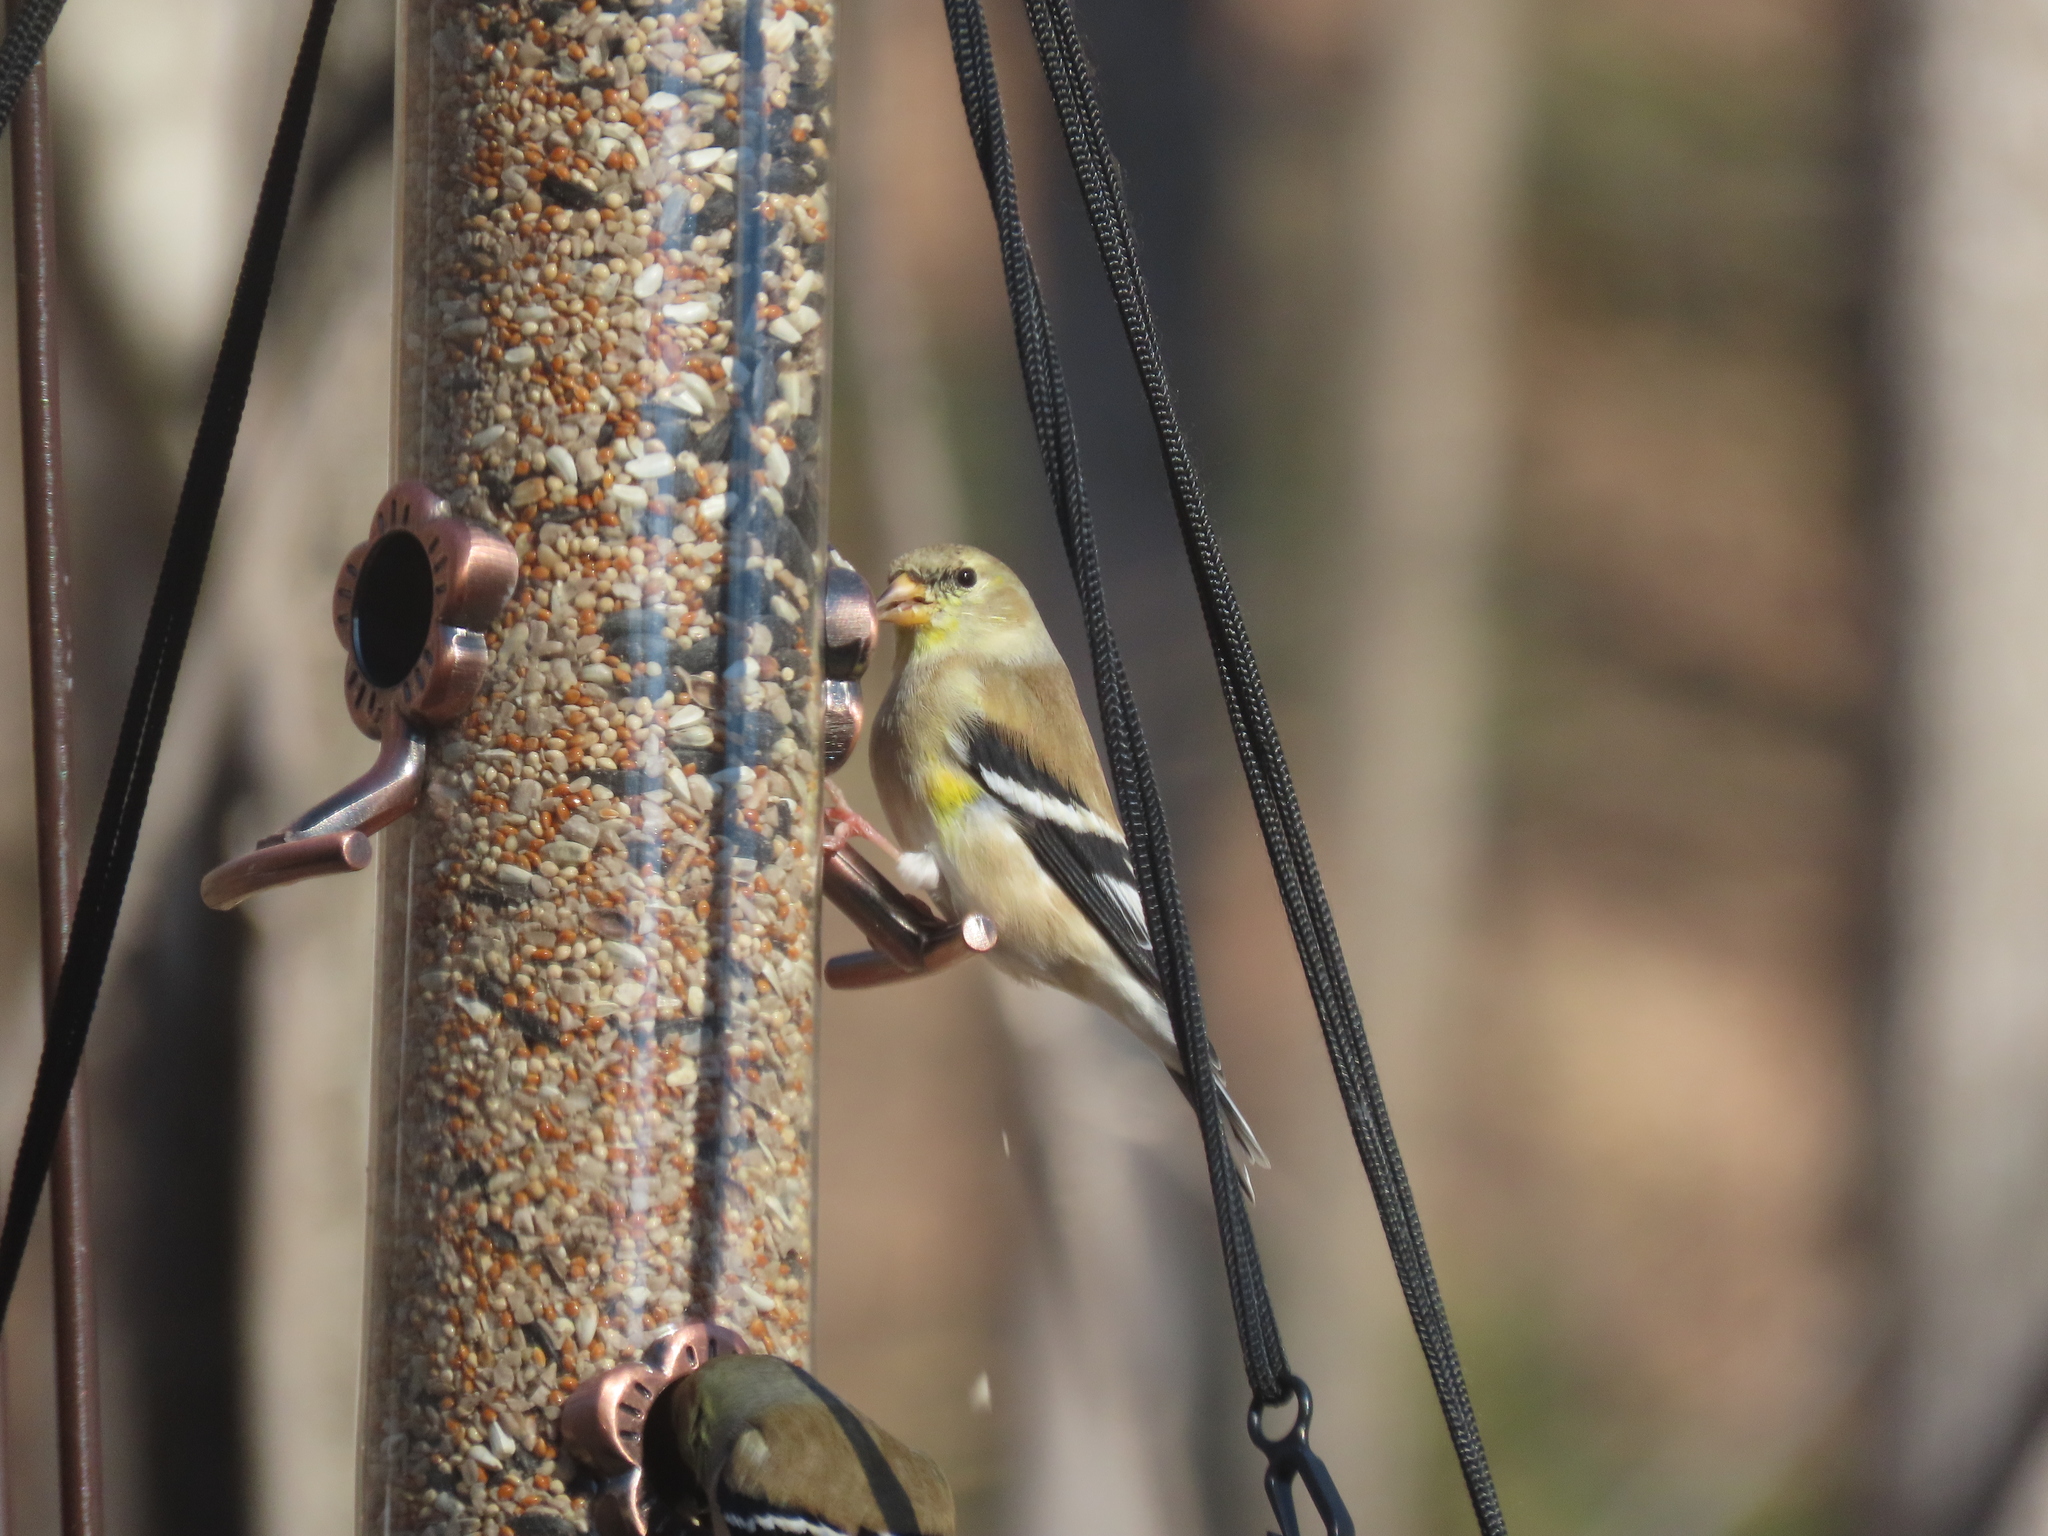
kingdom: Animalia
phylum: Chordata
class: Aves
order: Passeriformes
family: Fringillidae
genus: Spinus
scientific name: Spinus tristis
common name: American goldfinch
